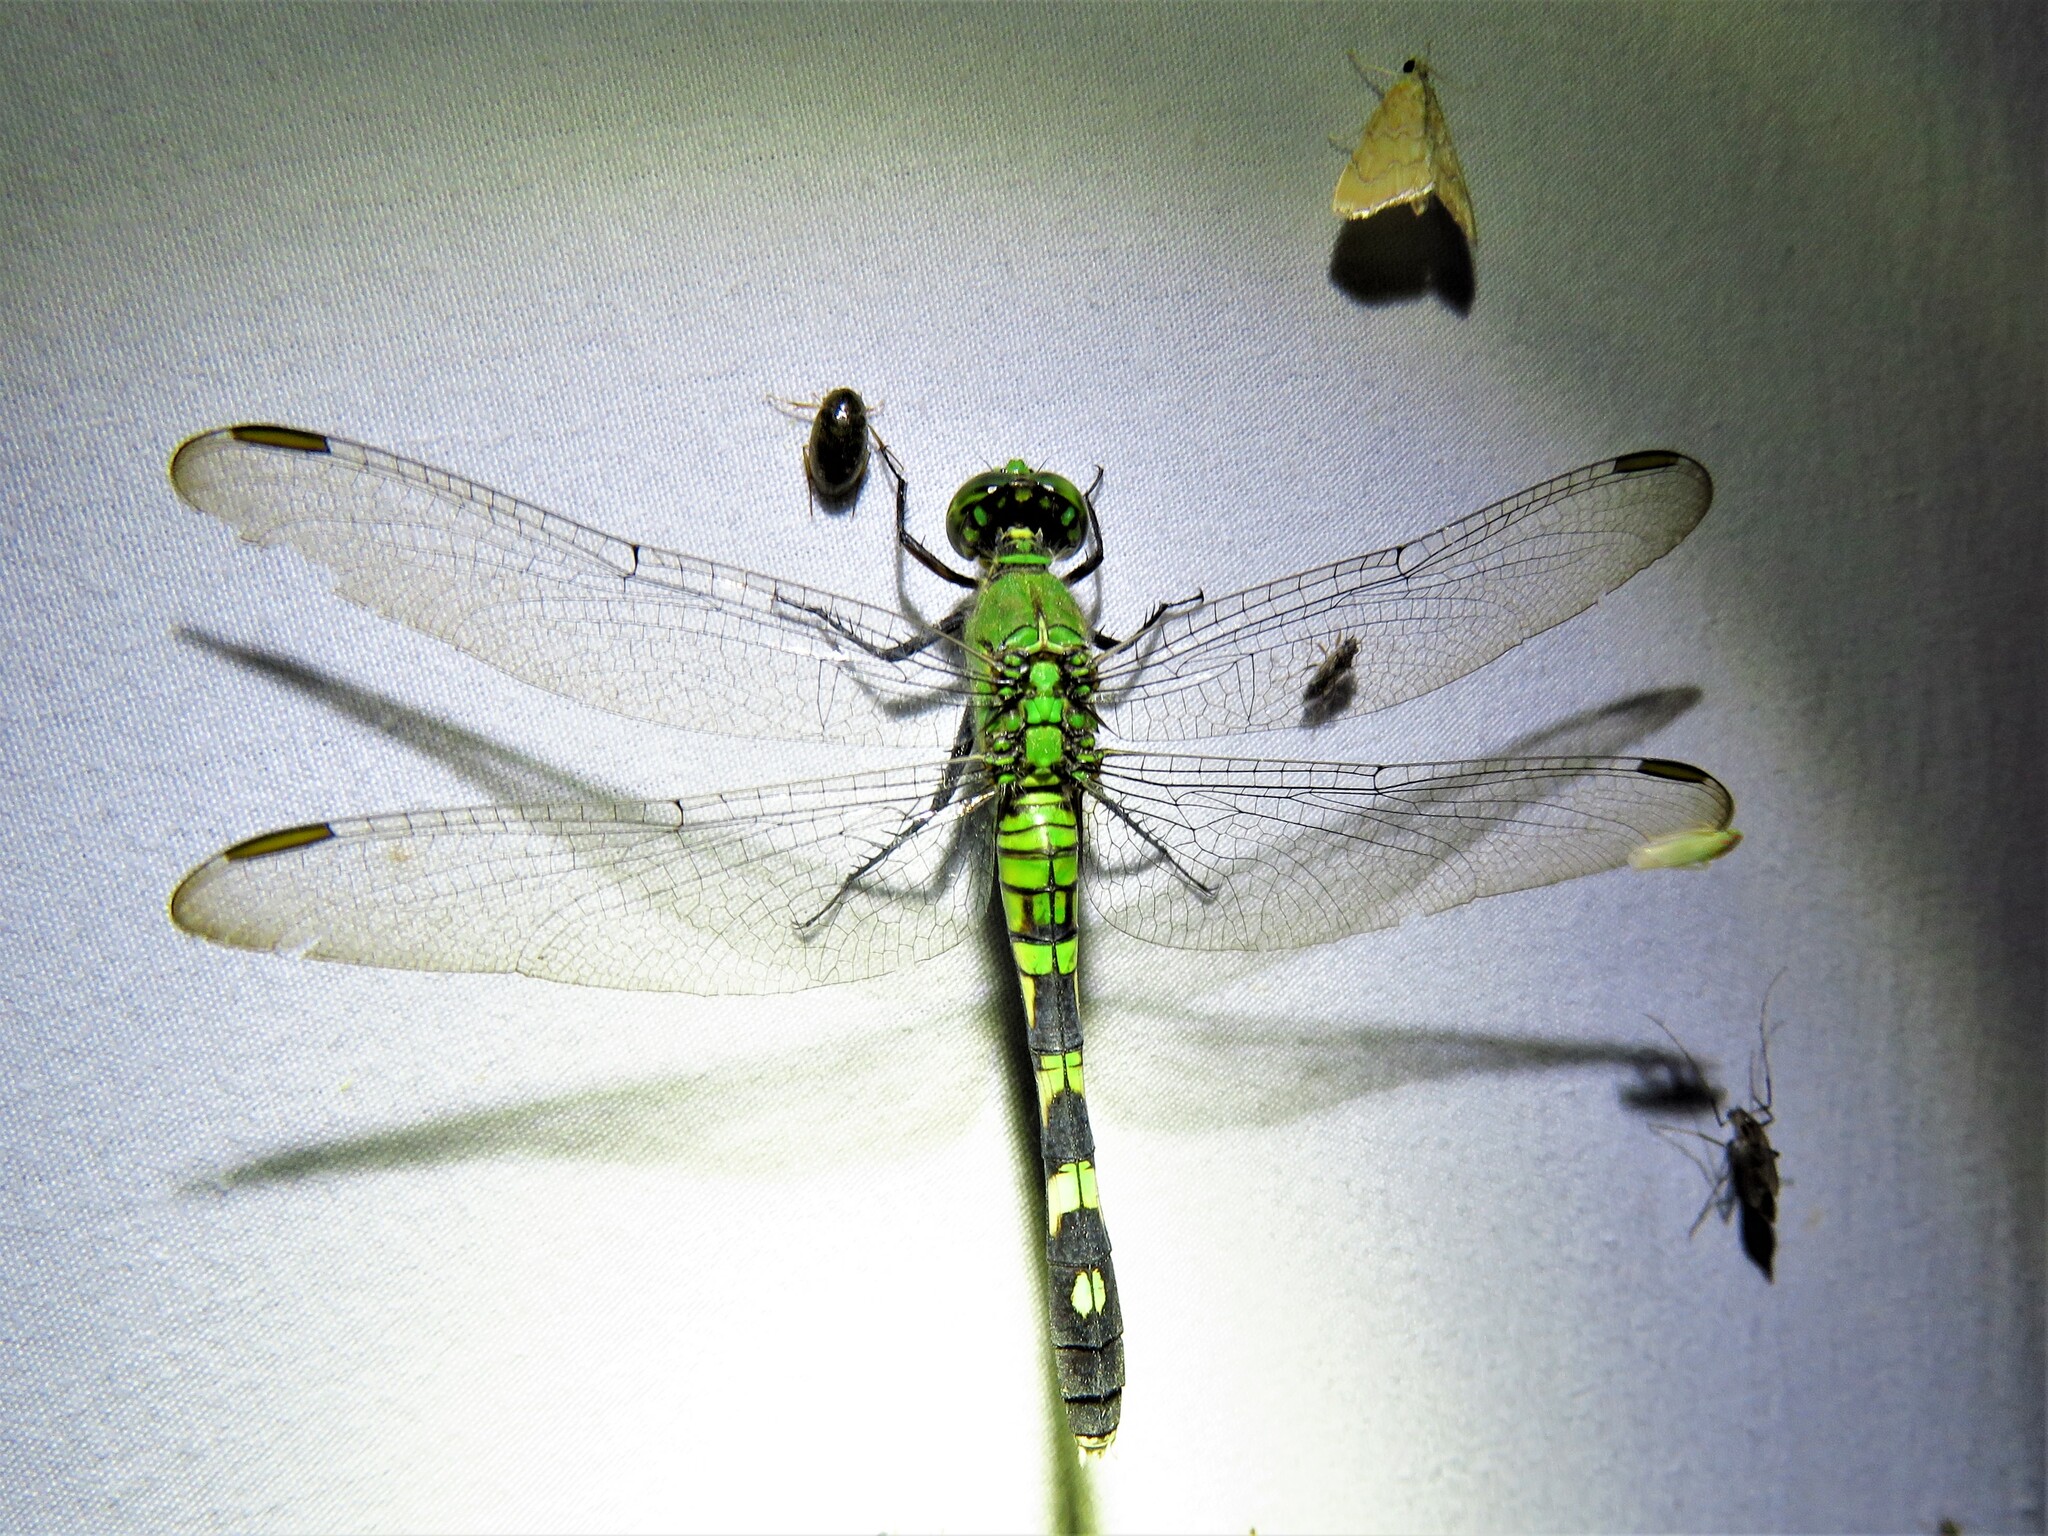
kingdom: Animalia
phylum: Arthropoda
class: Insecta
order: Odonata
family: Libellulidae
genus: Erythemis
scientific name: Erythemis simplicicollis
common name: Eastern pondhawk
